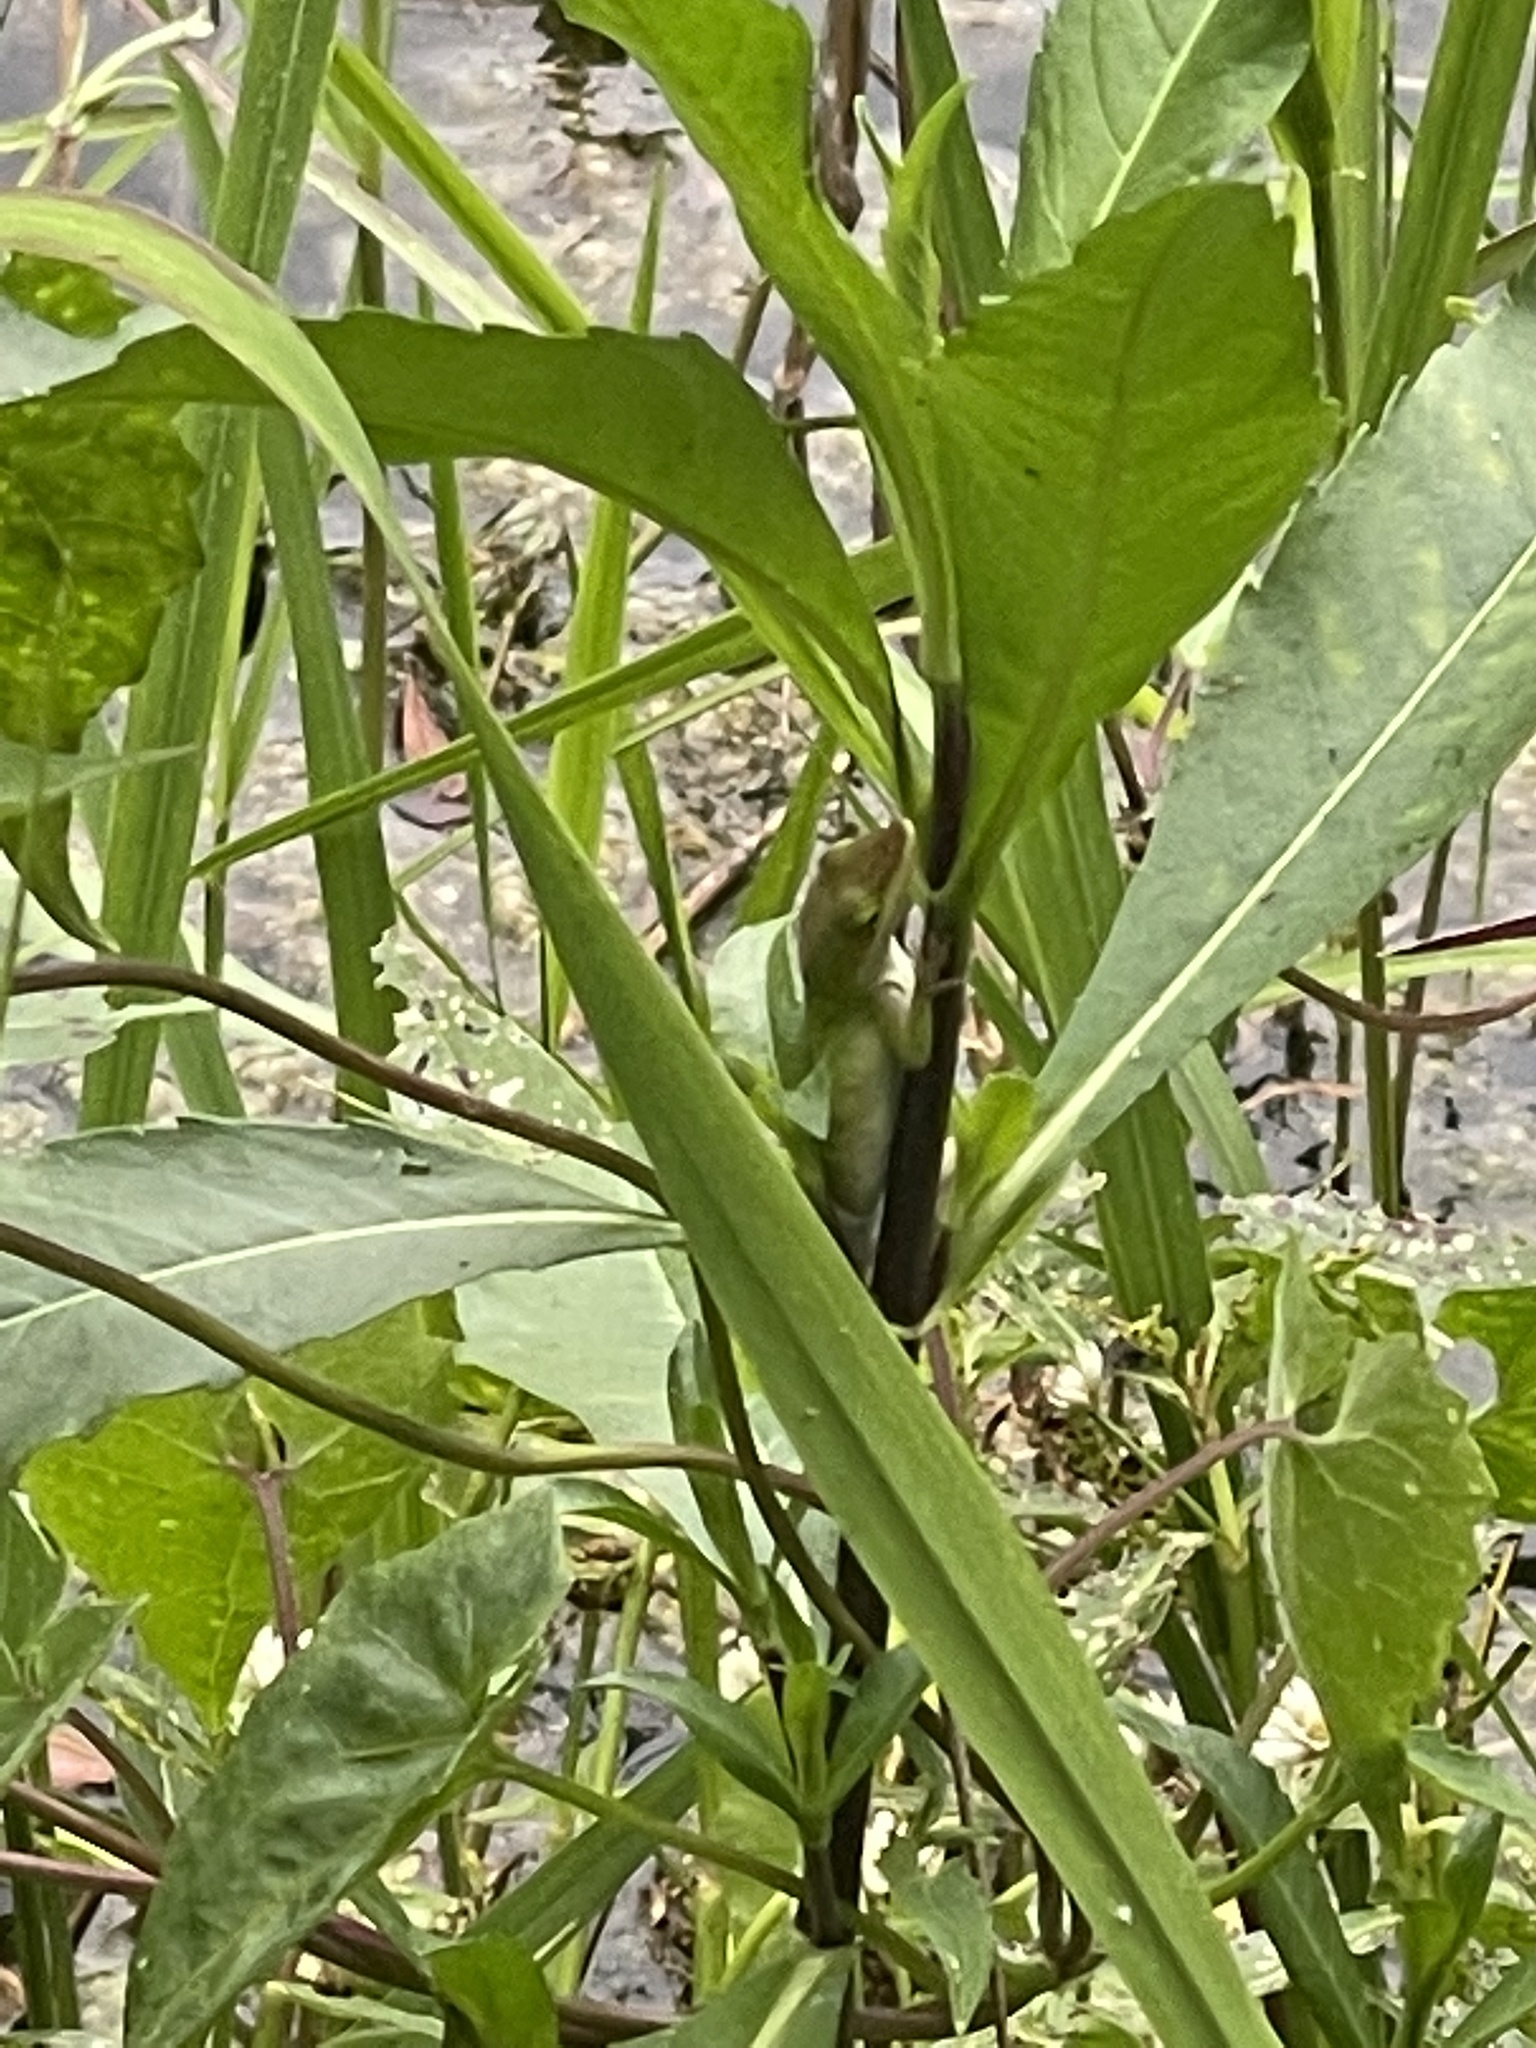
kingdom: Animalia
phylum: Chordata
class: Squamata
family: Dactyloidae
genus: Anolis
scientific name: Anolis carolinensis
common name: Green anole
